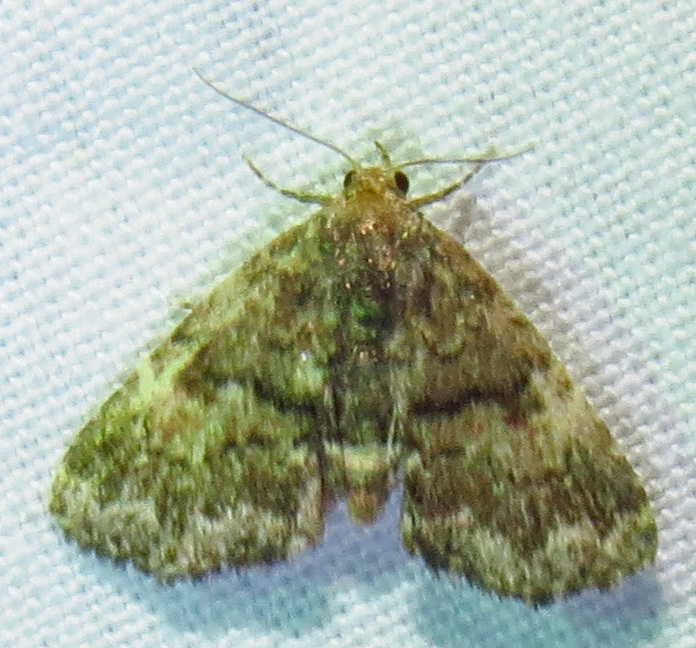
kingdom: Animalia
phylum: Arthropoda
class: Insecta
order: Lepidoptera
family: Erebidae
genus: Metalectra
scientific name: Metalectra richardsi
